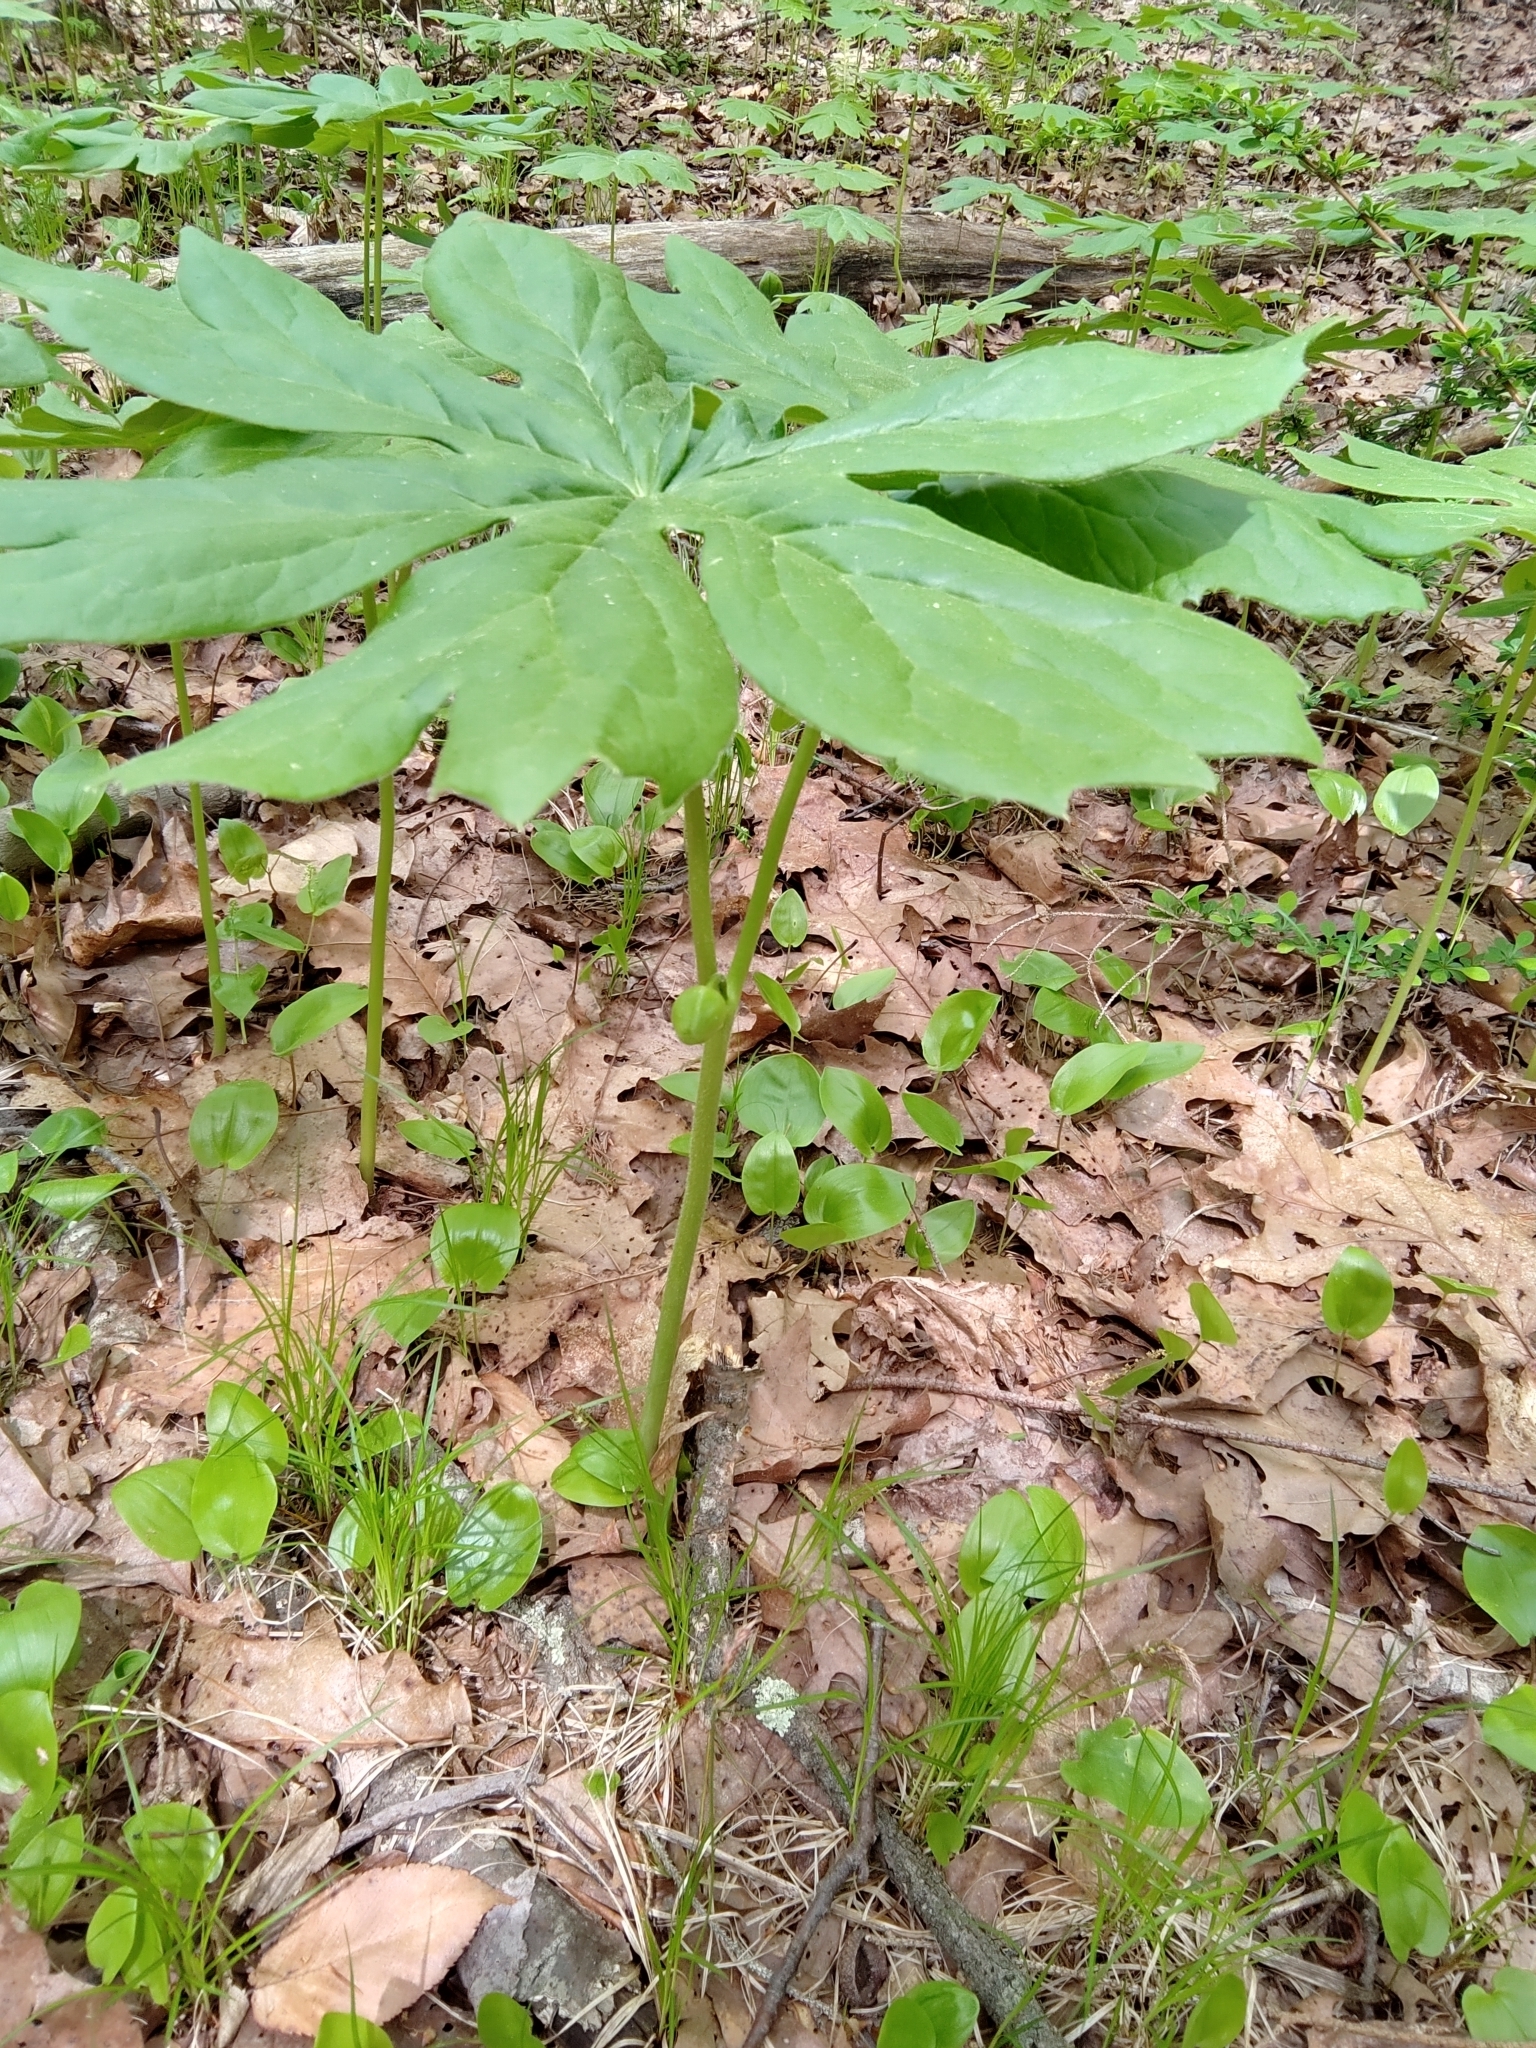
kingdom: Plantae
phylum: Tracheophyta
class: Magnoliopsida
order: Ranunculales
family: Berberidaceae
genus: Podophyllum
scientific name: Podophyllum peltatum
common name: Wild mandrake
